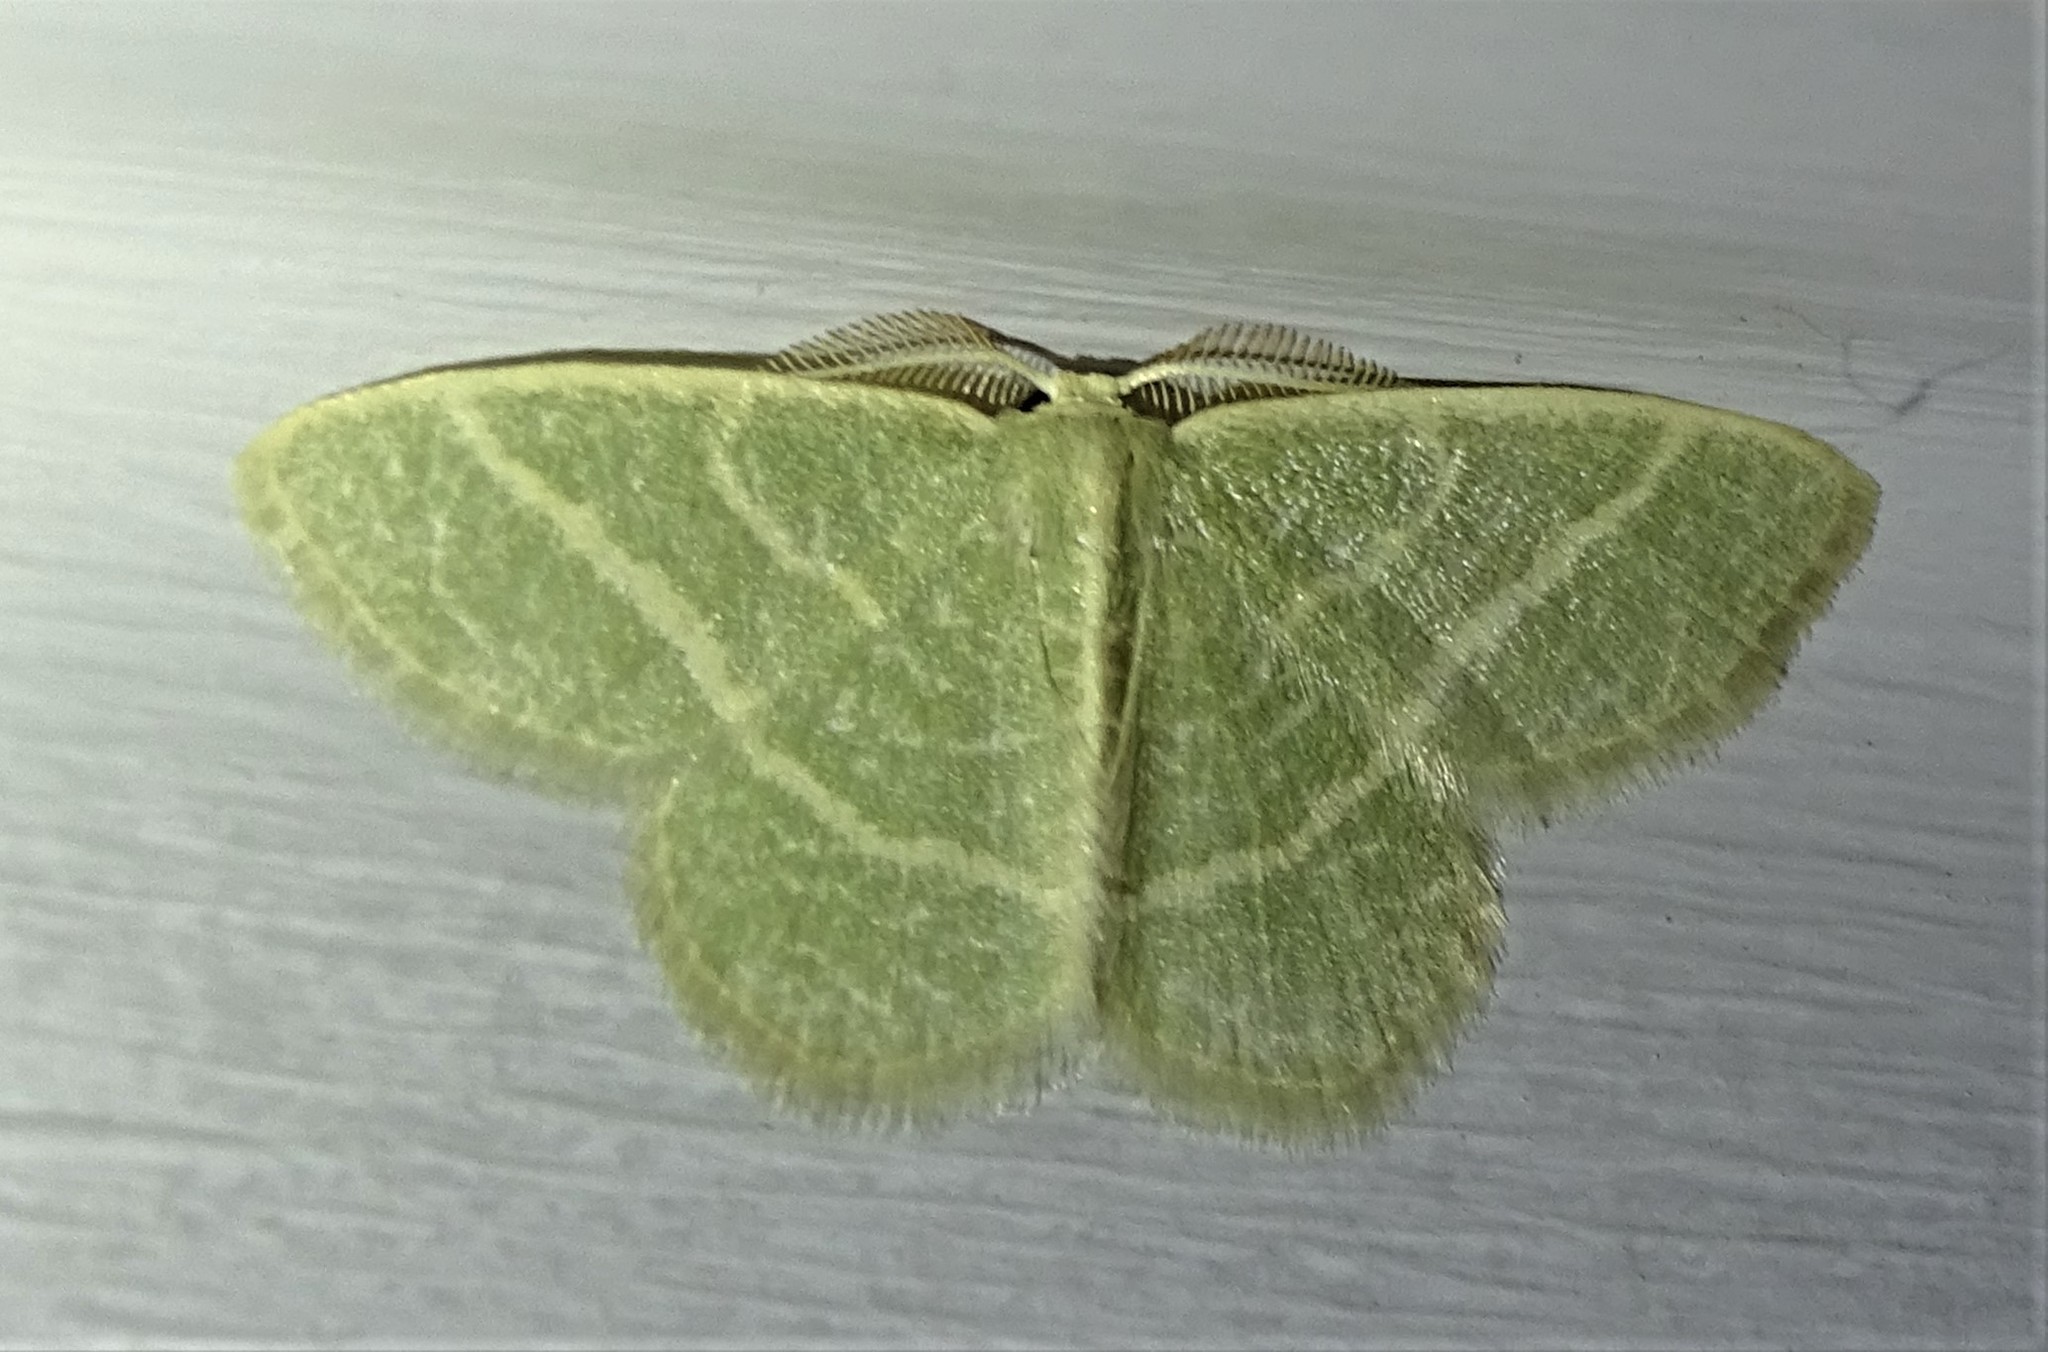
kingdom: Animalia
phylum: Arthropoda
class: Insecta
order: Lepidoptera
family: Geometridae
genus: Chlorochlamys
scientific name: Chlorochlamys chloroleucaria
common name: Blackberry looper
